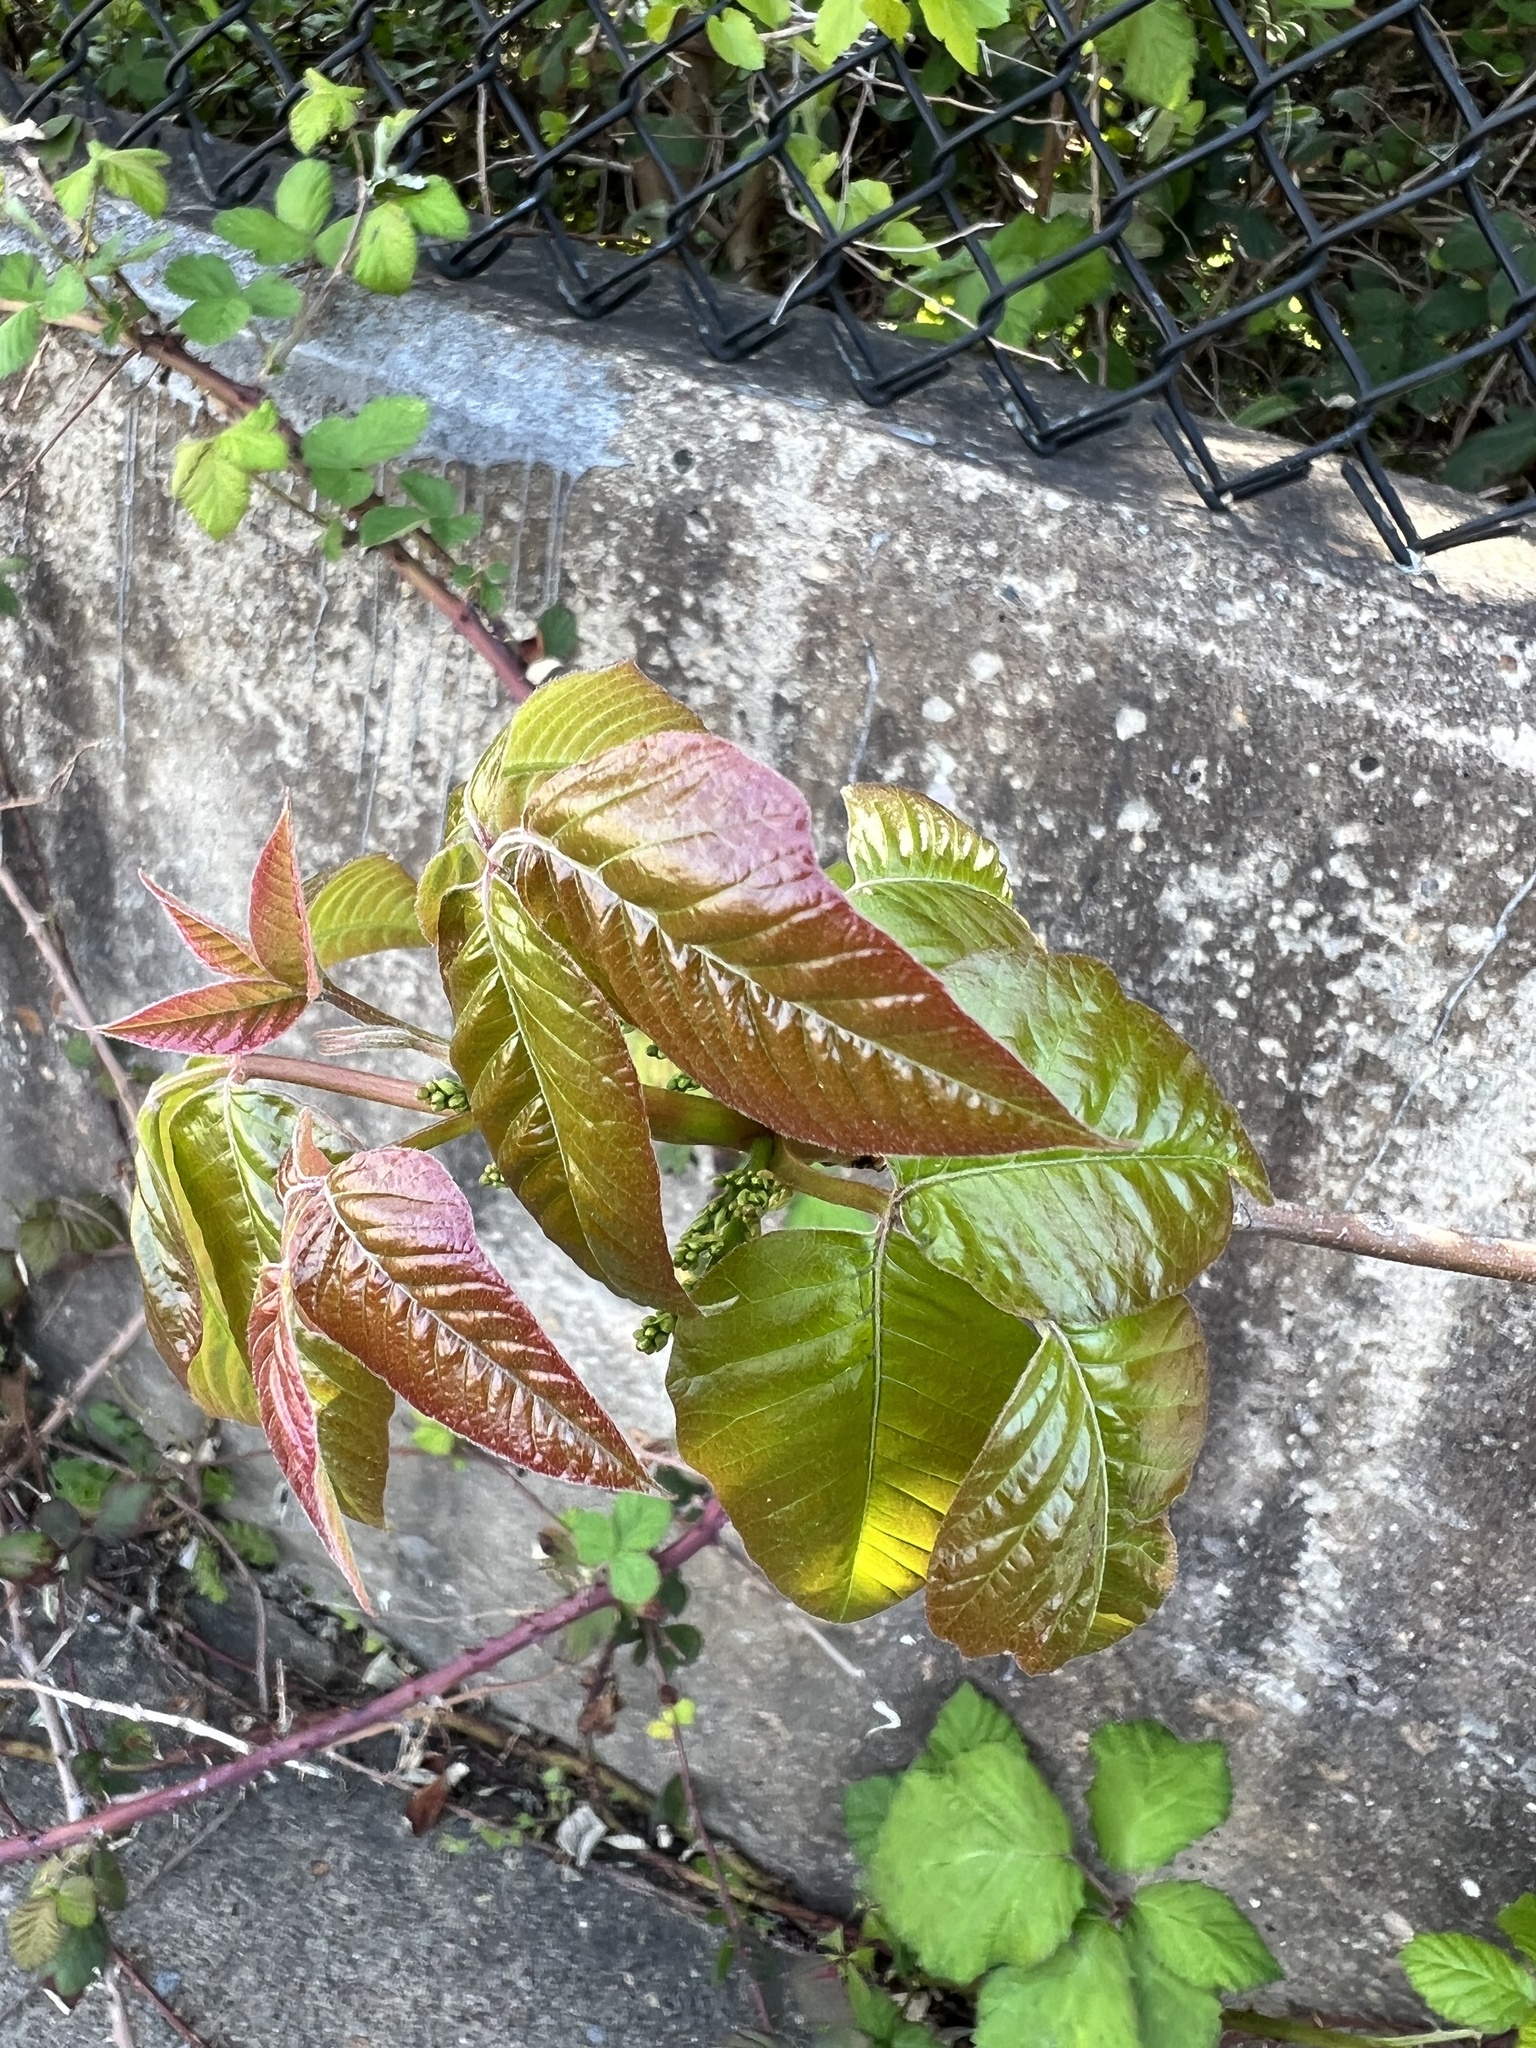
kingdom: Plantae
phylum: Tracheophyta
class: Magnoliopsida
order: Sapindales
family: Anacardiaceae
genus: Toxicodendron
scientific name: Toxicodendron radicans
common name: Poison ivy
